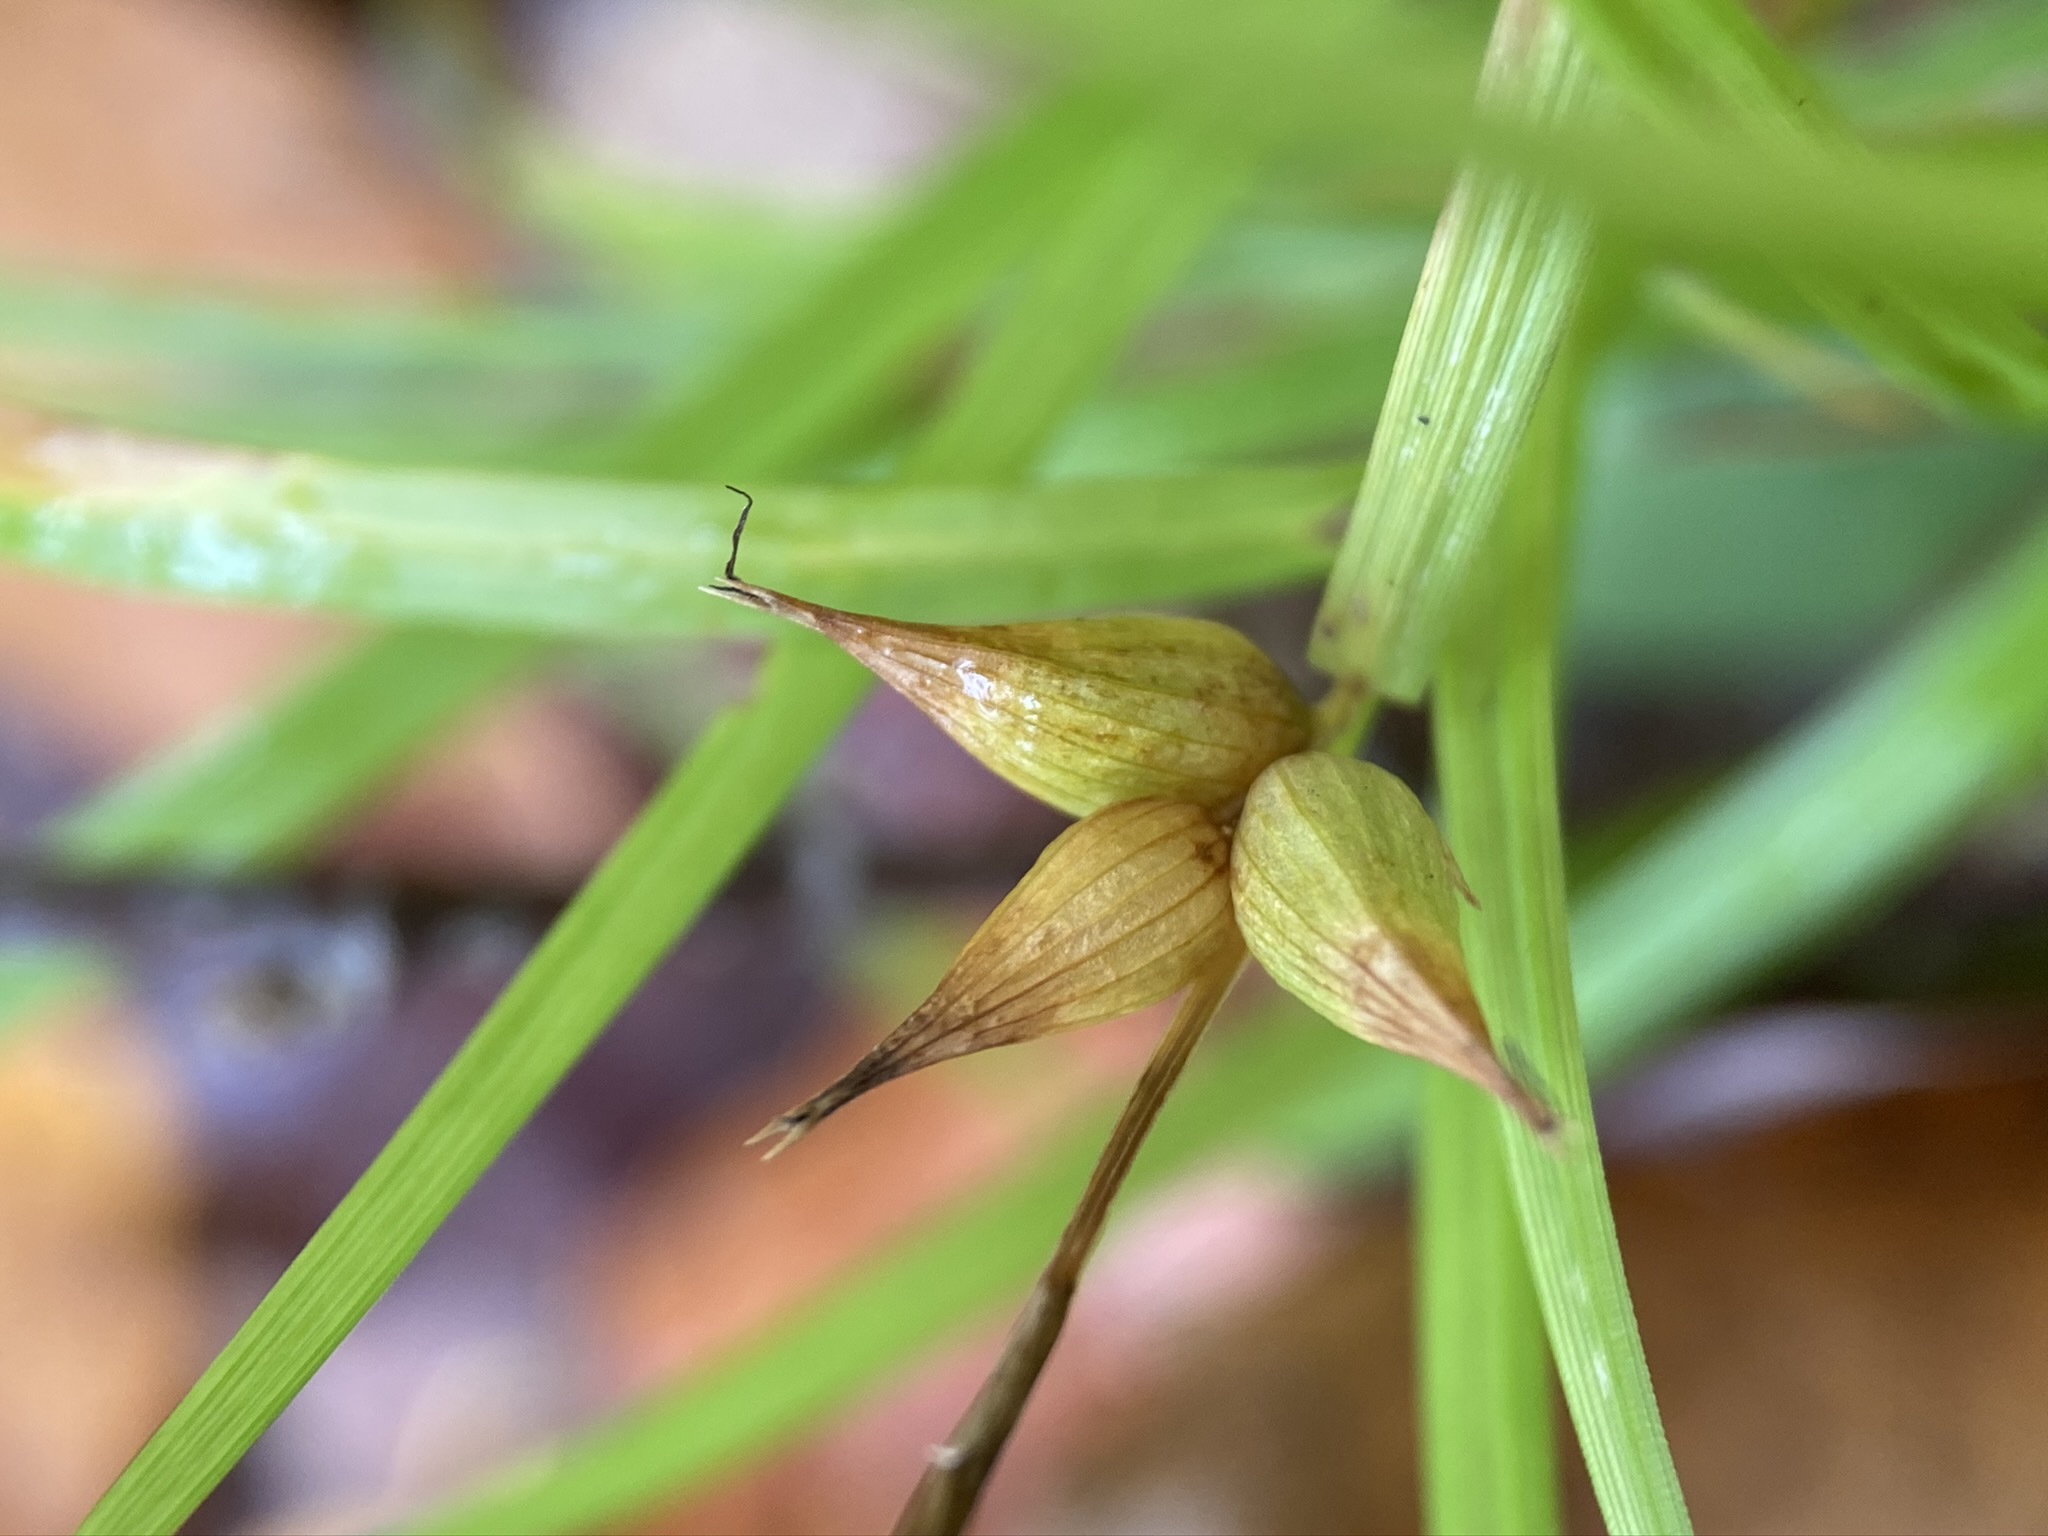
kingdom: Plantae
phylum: Tracheophyta
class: Liliopsida
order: Poales
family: Cyperaceae
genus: Carex
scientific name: Carex intumescens
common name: Greater bladder sedge
